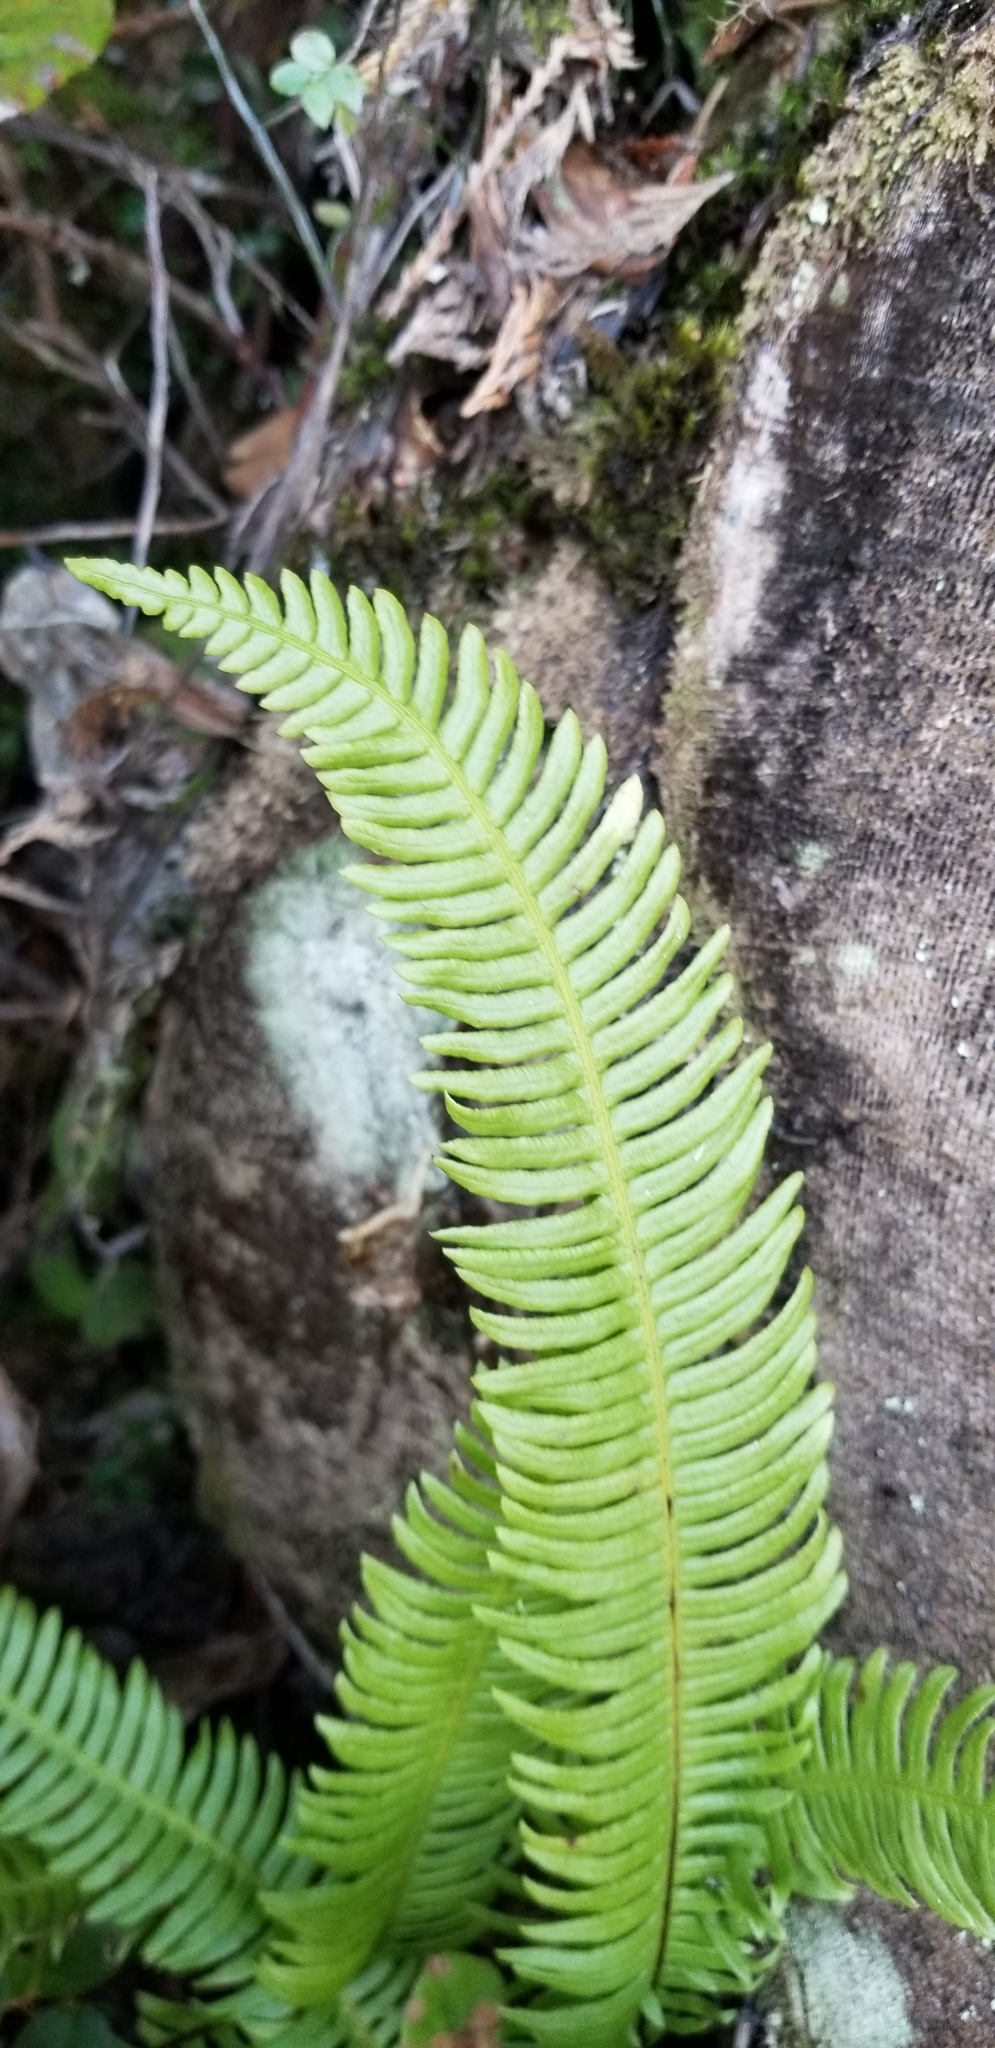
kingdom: Plantae
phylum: Tracheophyta
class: Polypodiopsida
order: Polypodiales
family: Blechnaceae
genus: Struthiopteris
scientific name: Struthiopteris spicant
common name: Deer fern
